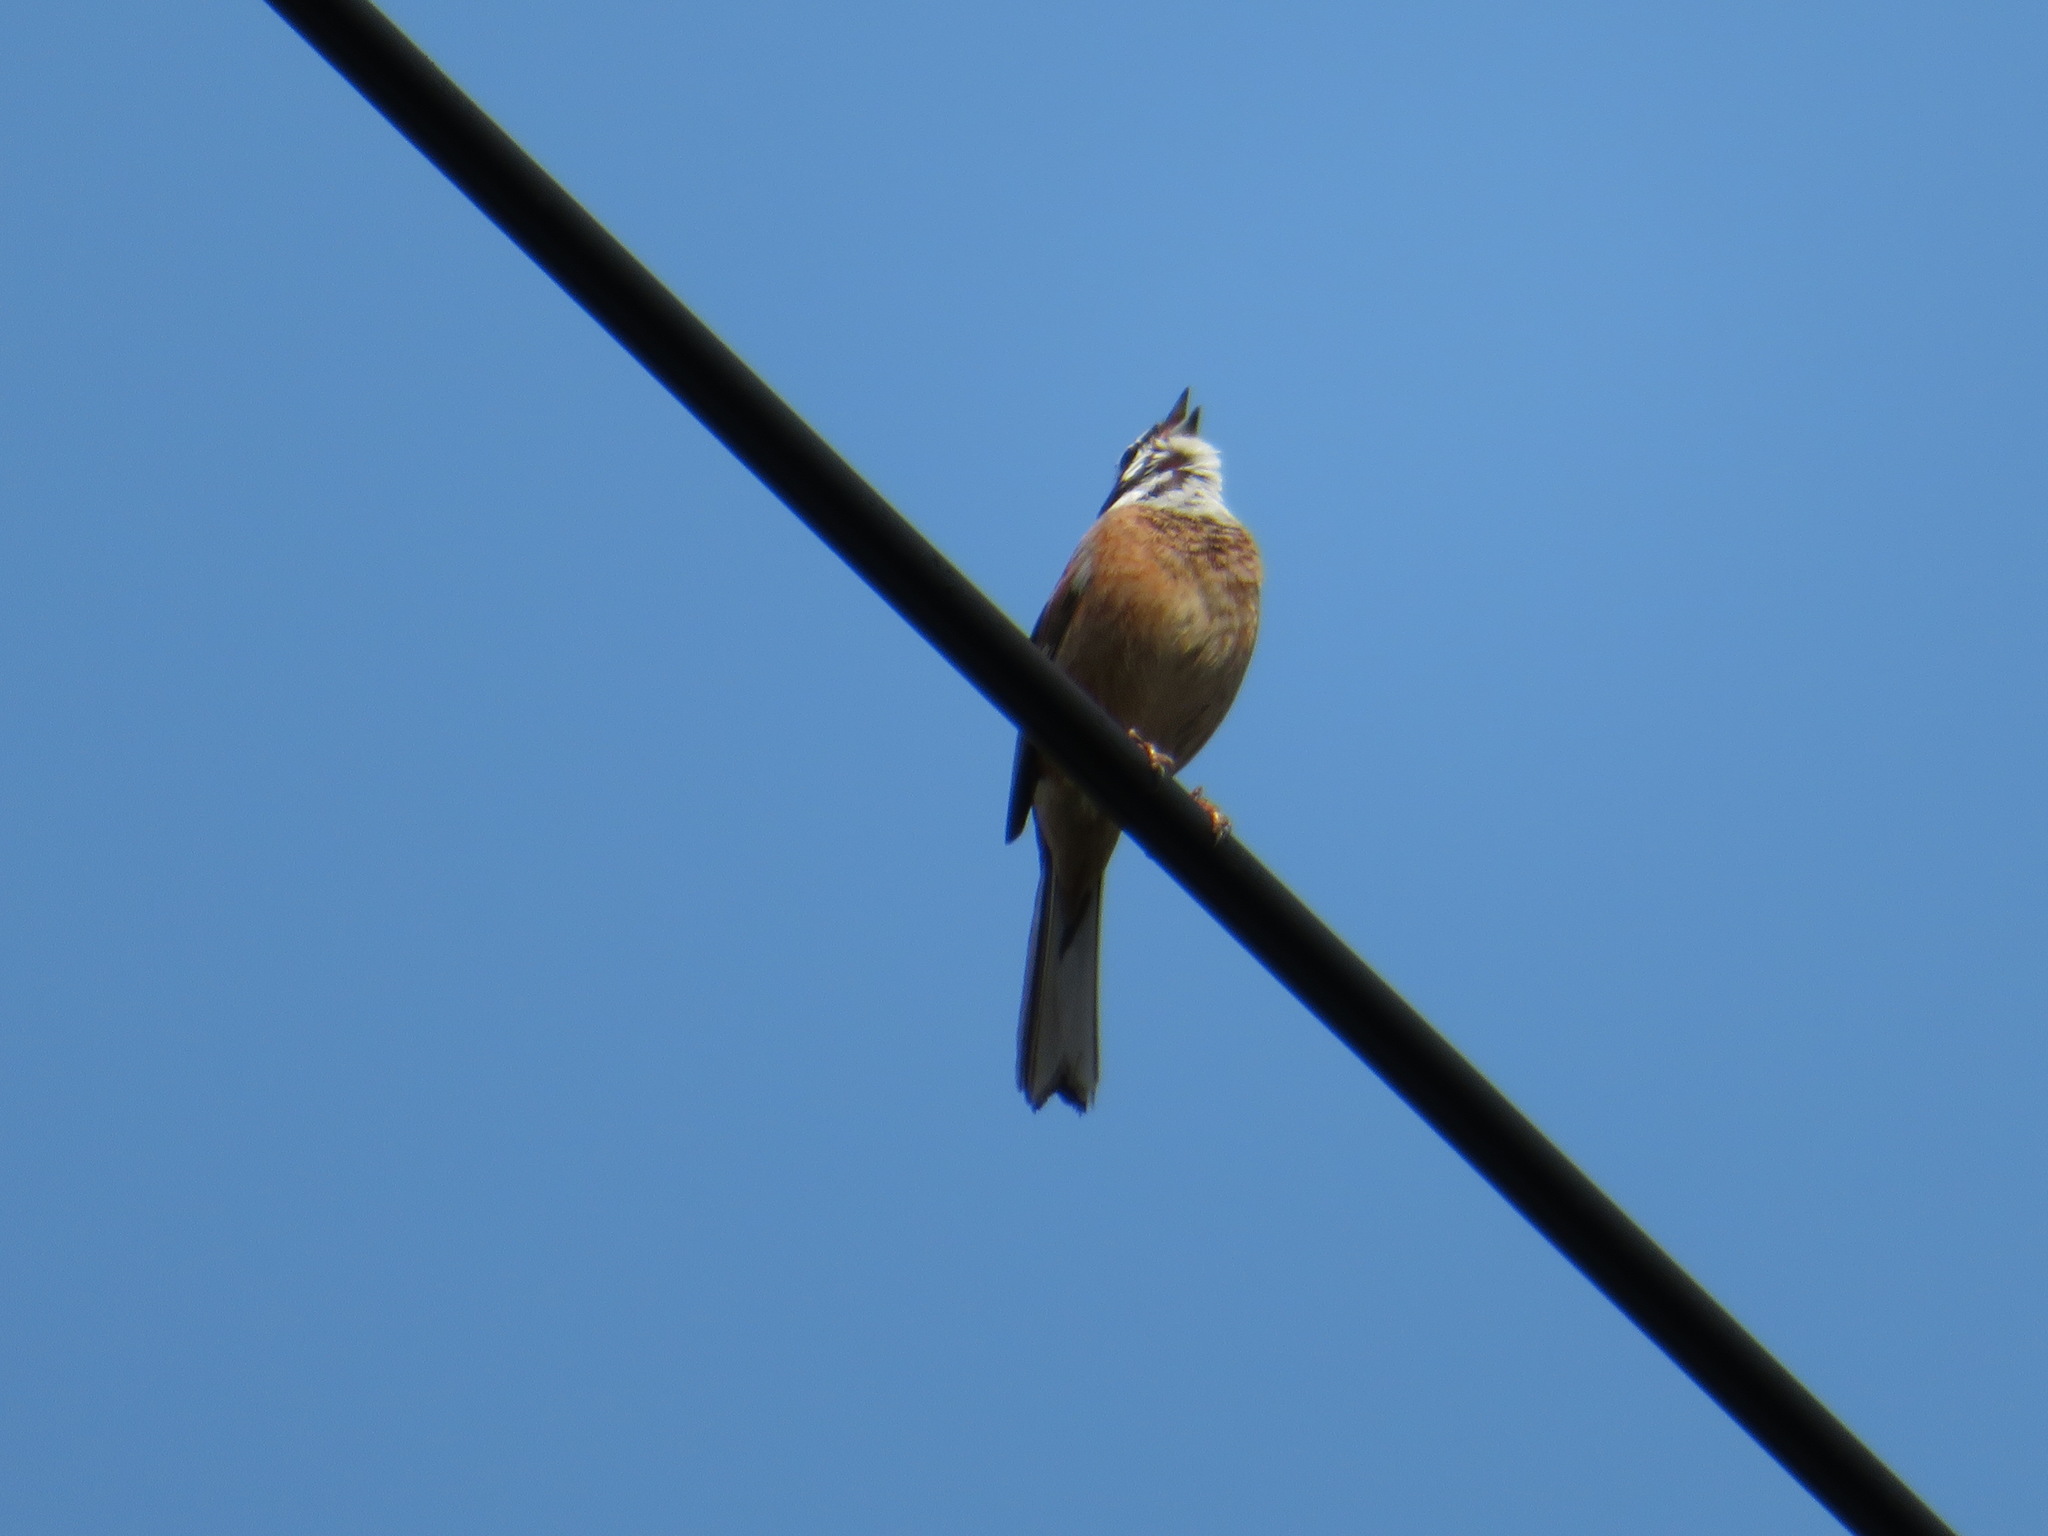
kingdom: Animalia
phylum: Chordata
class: Aves
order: Passeriformes
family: Emberizidae
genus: Emberiza
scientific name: Emberiza cioides
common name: Meadow bunting
